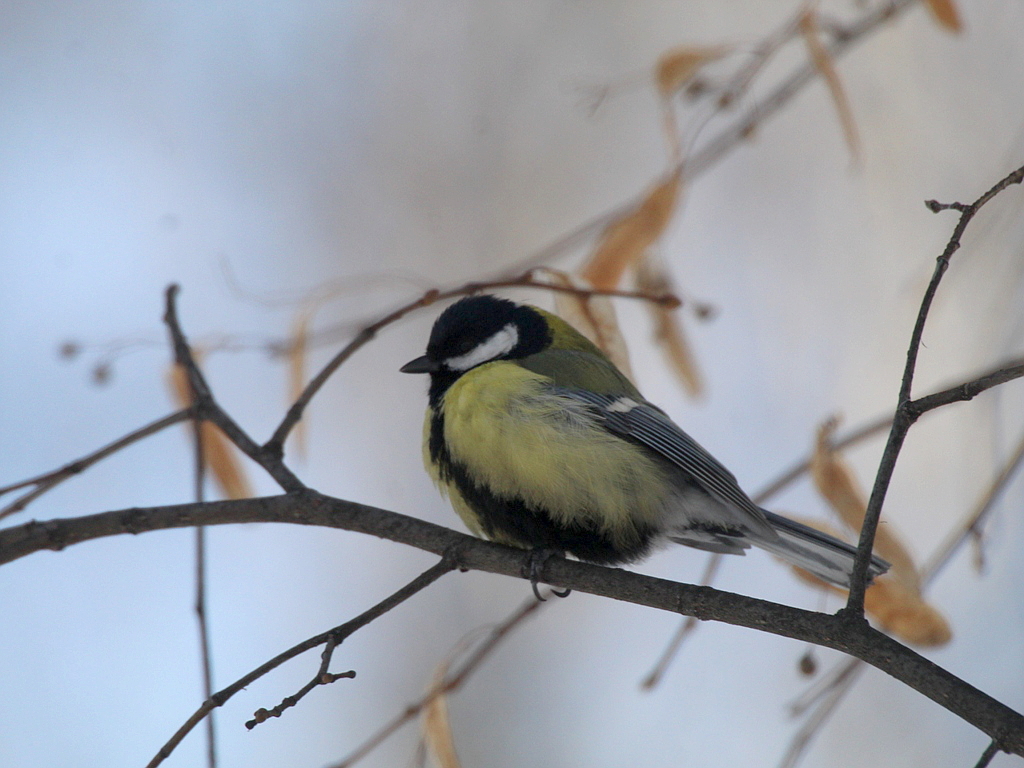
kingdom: Animalia
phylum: Chordata
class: Aves
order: Passeriformes
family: Paridae
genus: Parus
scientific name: Parus major
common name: Great tit
